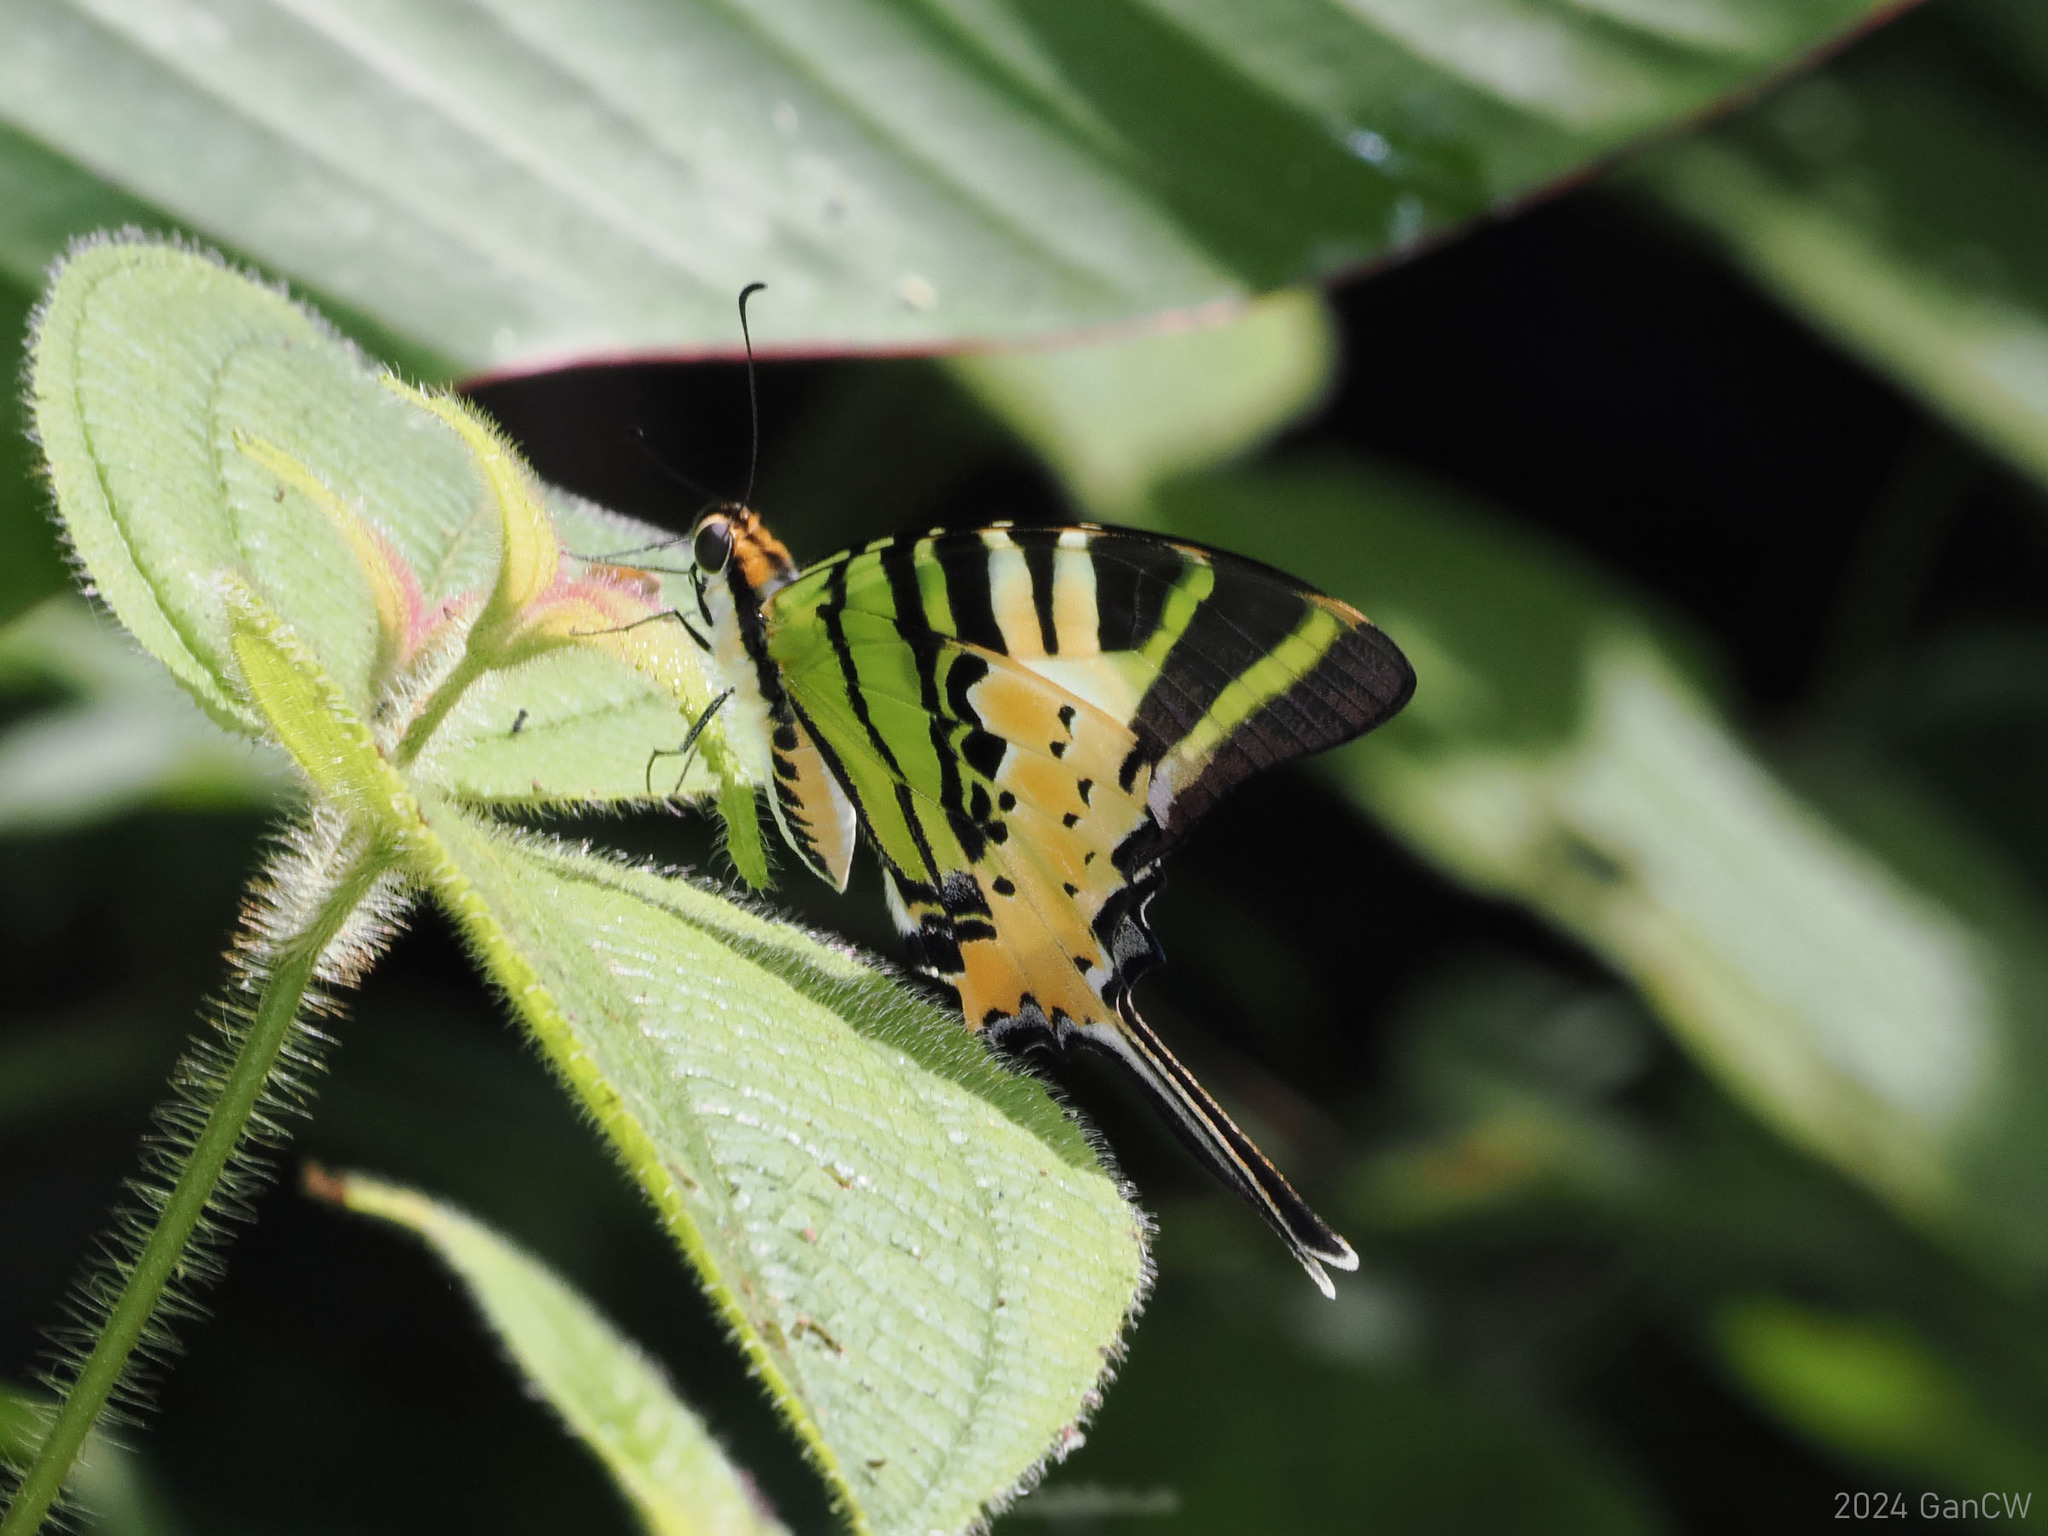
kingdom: Animalia
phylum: Arthropoda
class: Insecta
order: Lepidoptera
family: Papilionidae
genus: Graphium
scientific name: Graphium antiphates
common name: Fivebar swordtail
